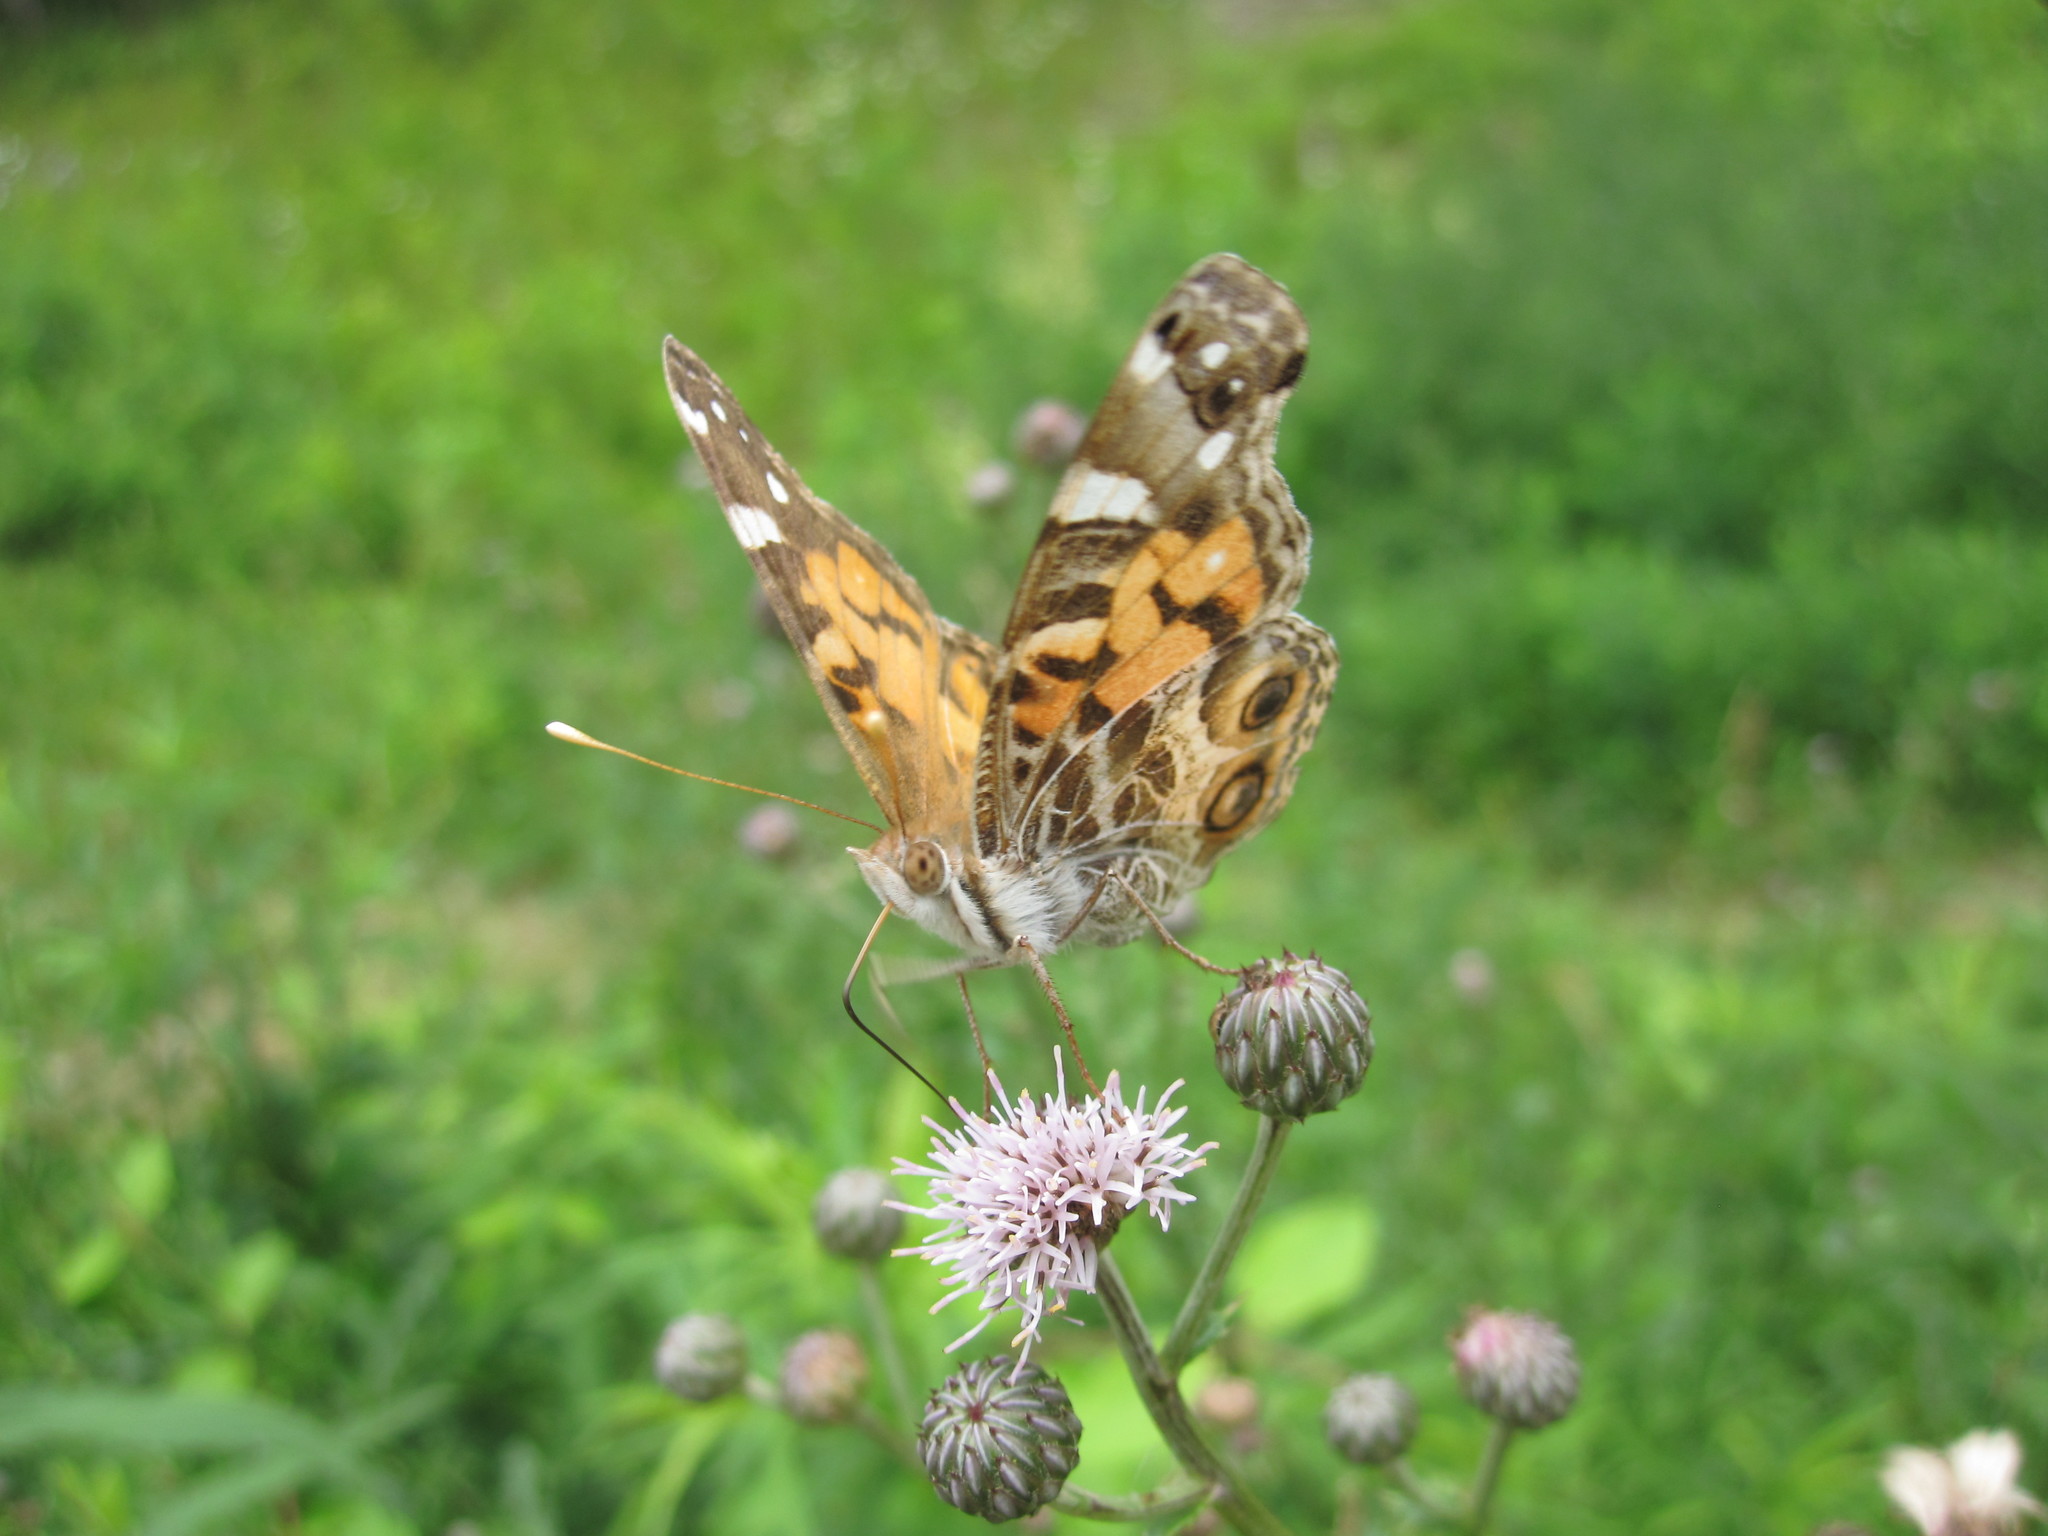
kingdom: Animalia
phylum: Arthropoda
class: Insecta
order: Lepidoptera
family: Nymphalidae
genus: Vanessa
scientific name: Vanessa virginiensis
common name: American lady
